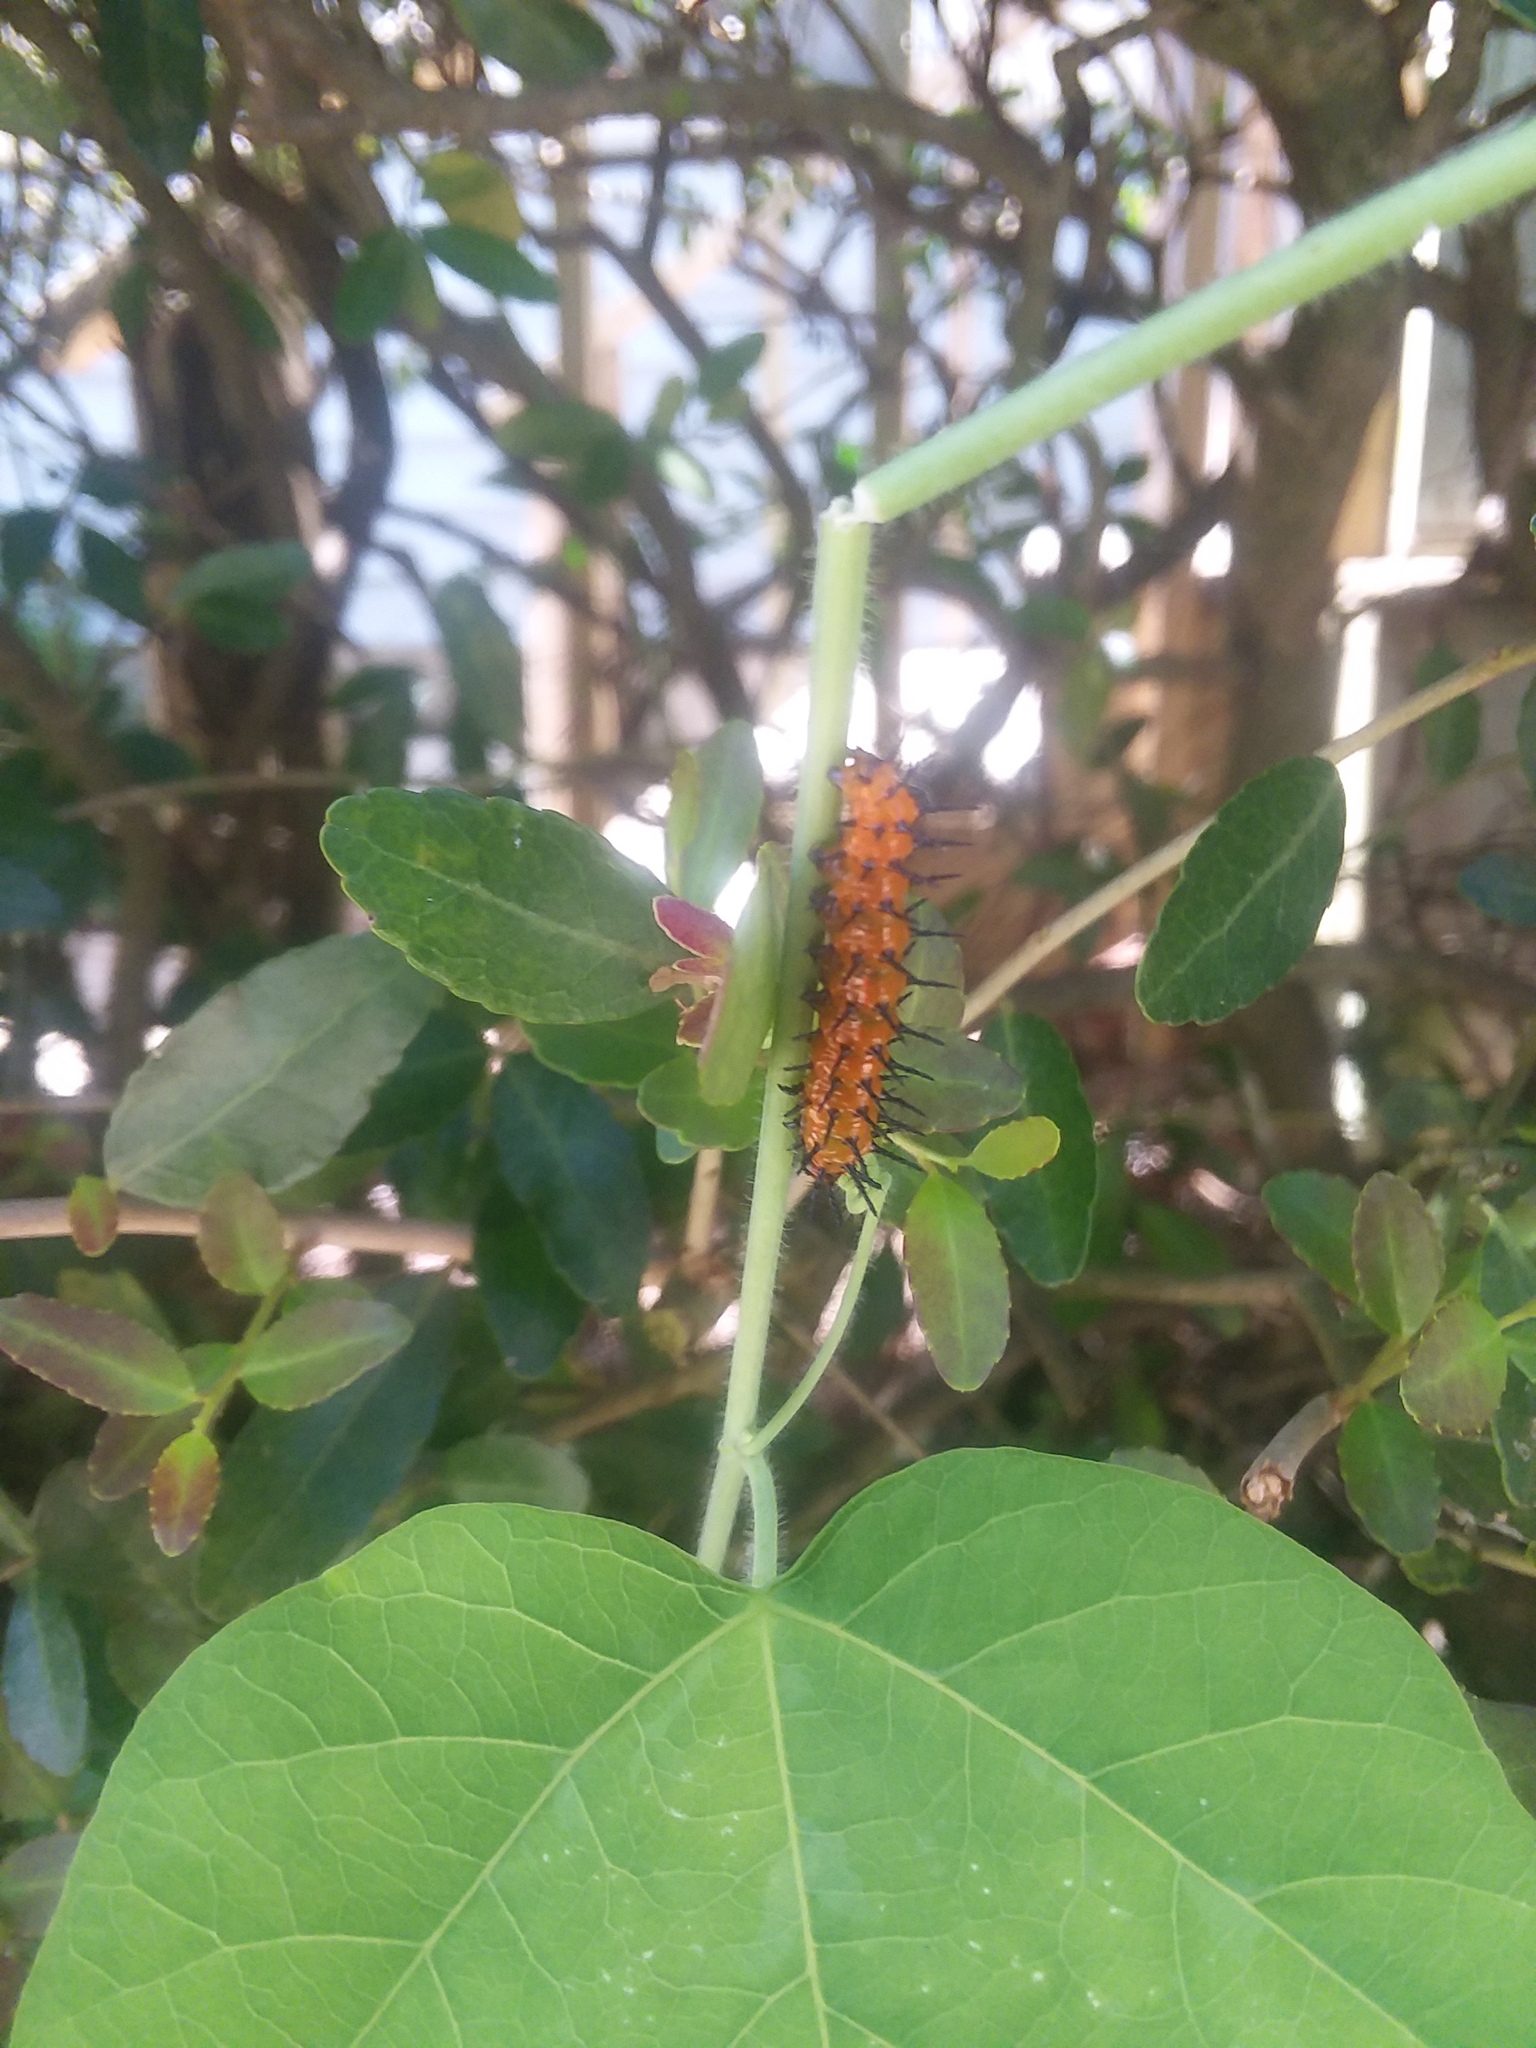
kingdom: Animalia
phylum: Arthropoda
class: Insecta
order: Lepidoptera
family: Nymphalidae
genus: Dione
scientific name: Dione vanillae
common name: Gulf fritillary
